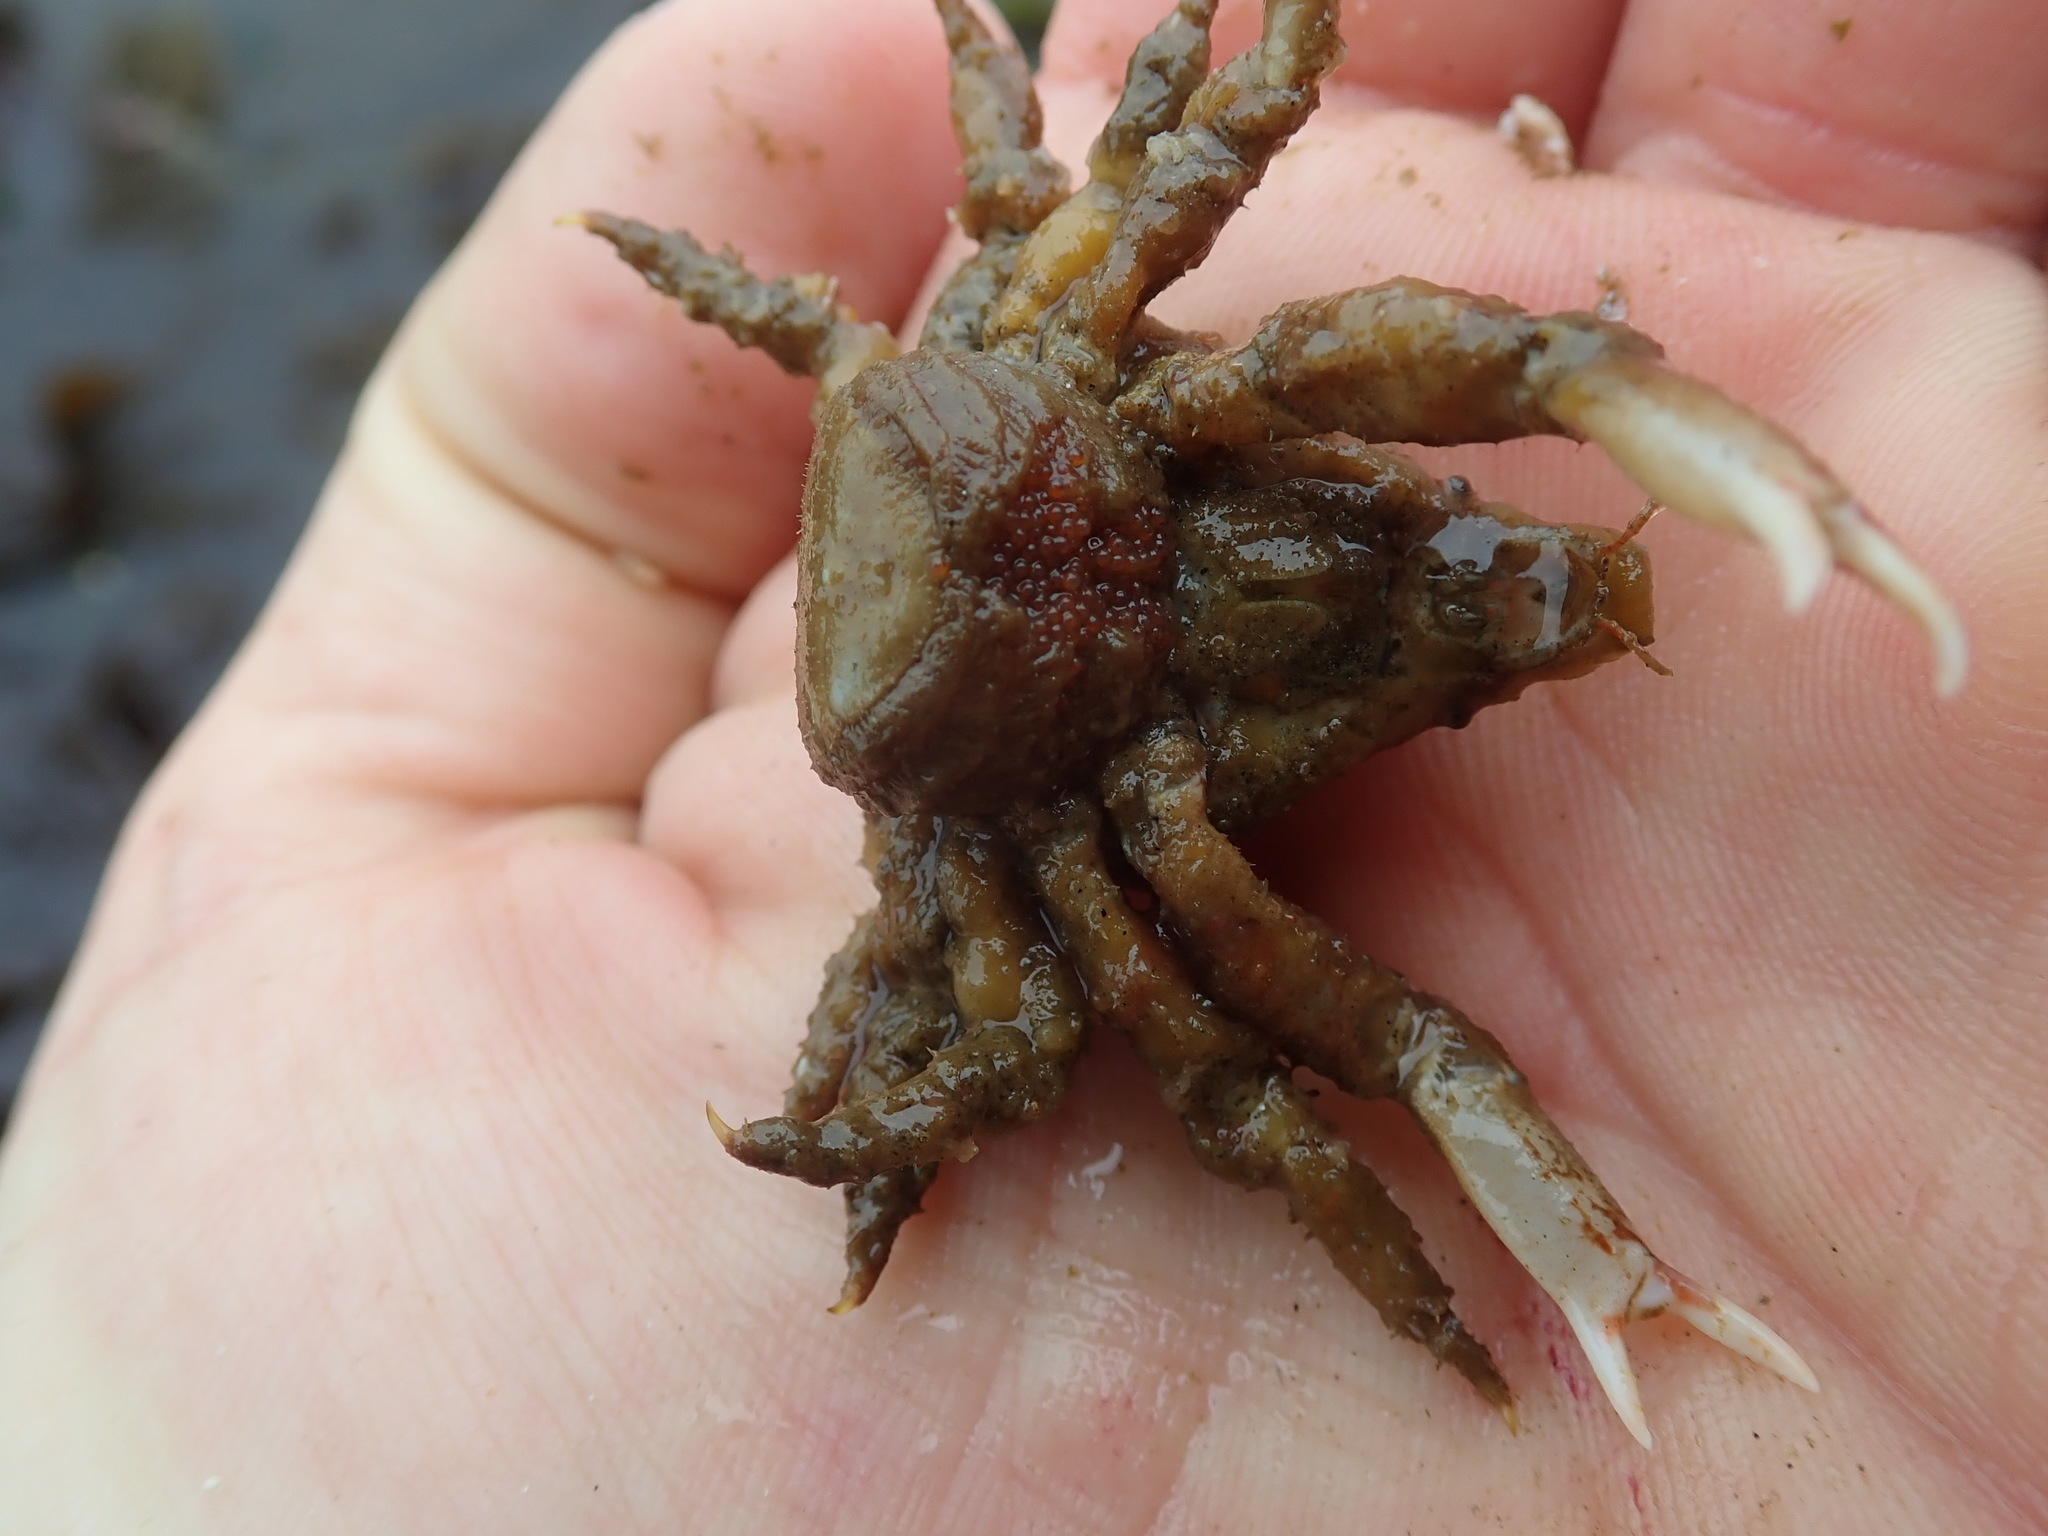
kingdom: Animalia
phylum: Arthropoda
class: Malacostraca
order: Decapoda
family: Epialtidae
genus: Scyra
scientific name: Scyra acutifrons
